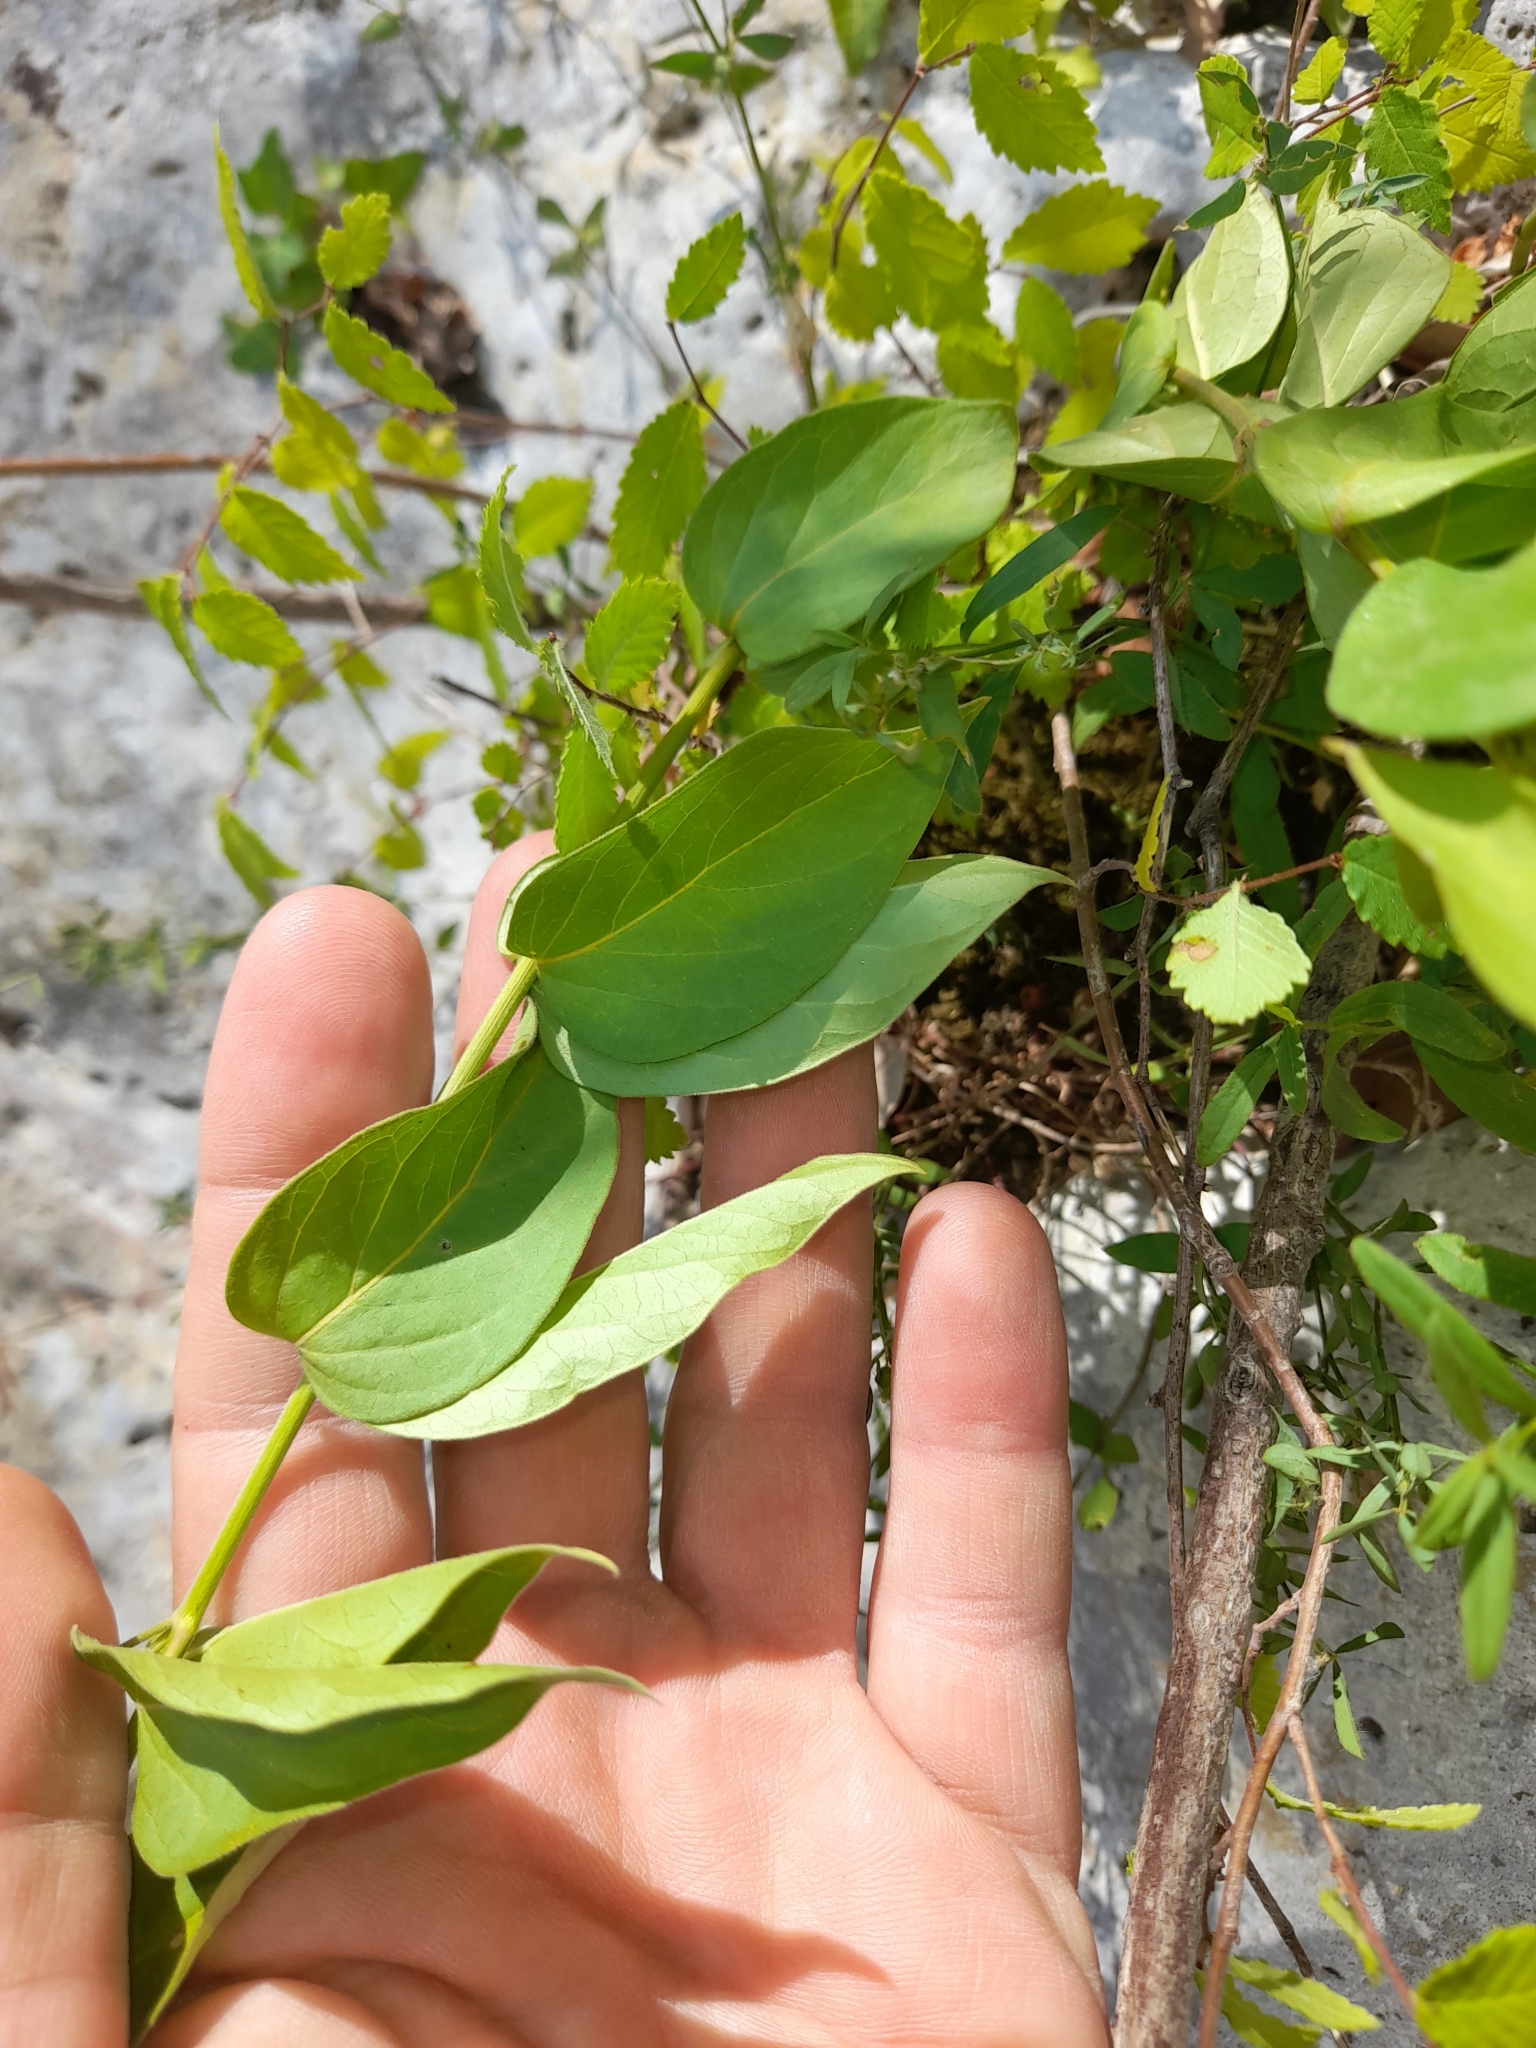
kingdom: Plantae
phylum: Tracheophyta
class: Magnoliopsida
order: Gentianales
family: Apocynaceae
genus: Vincetoxicum
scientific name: Vincetoxicum hirundinaria
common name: White swallowwort
